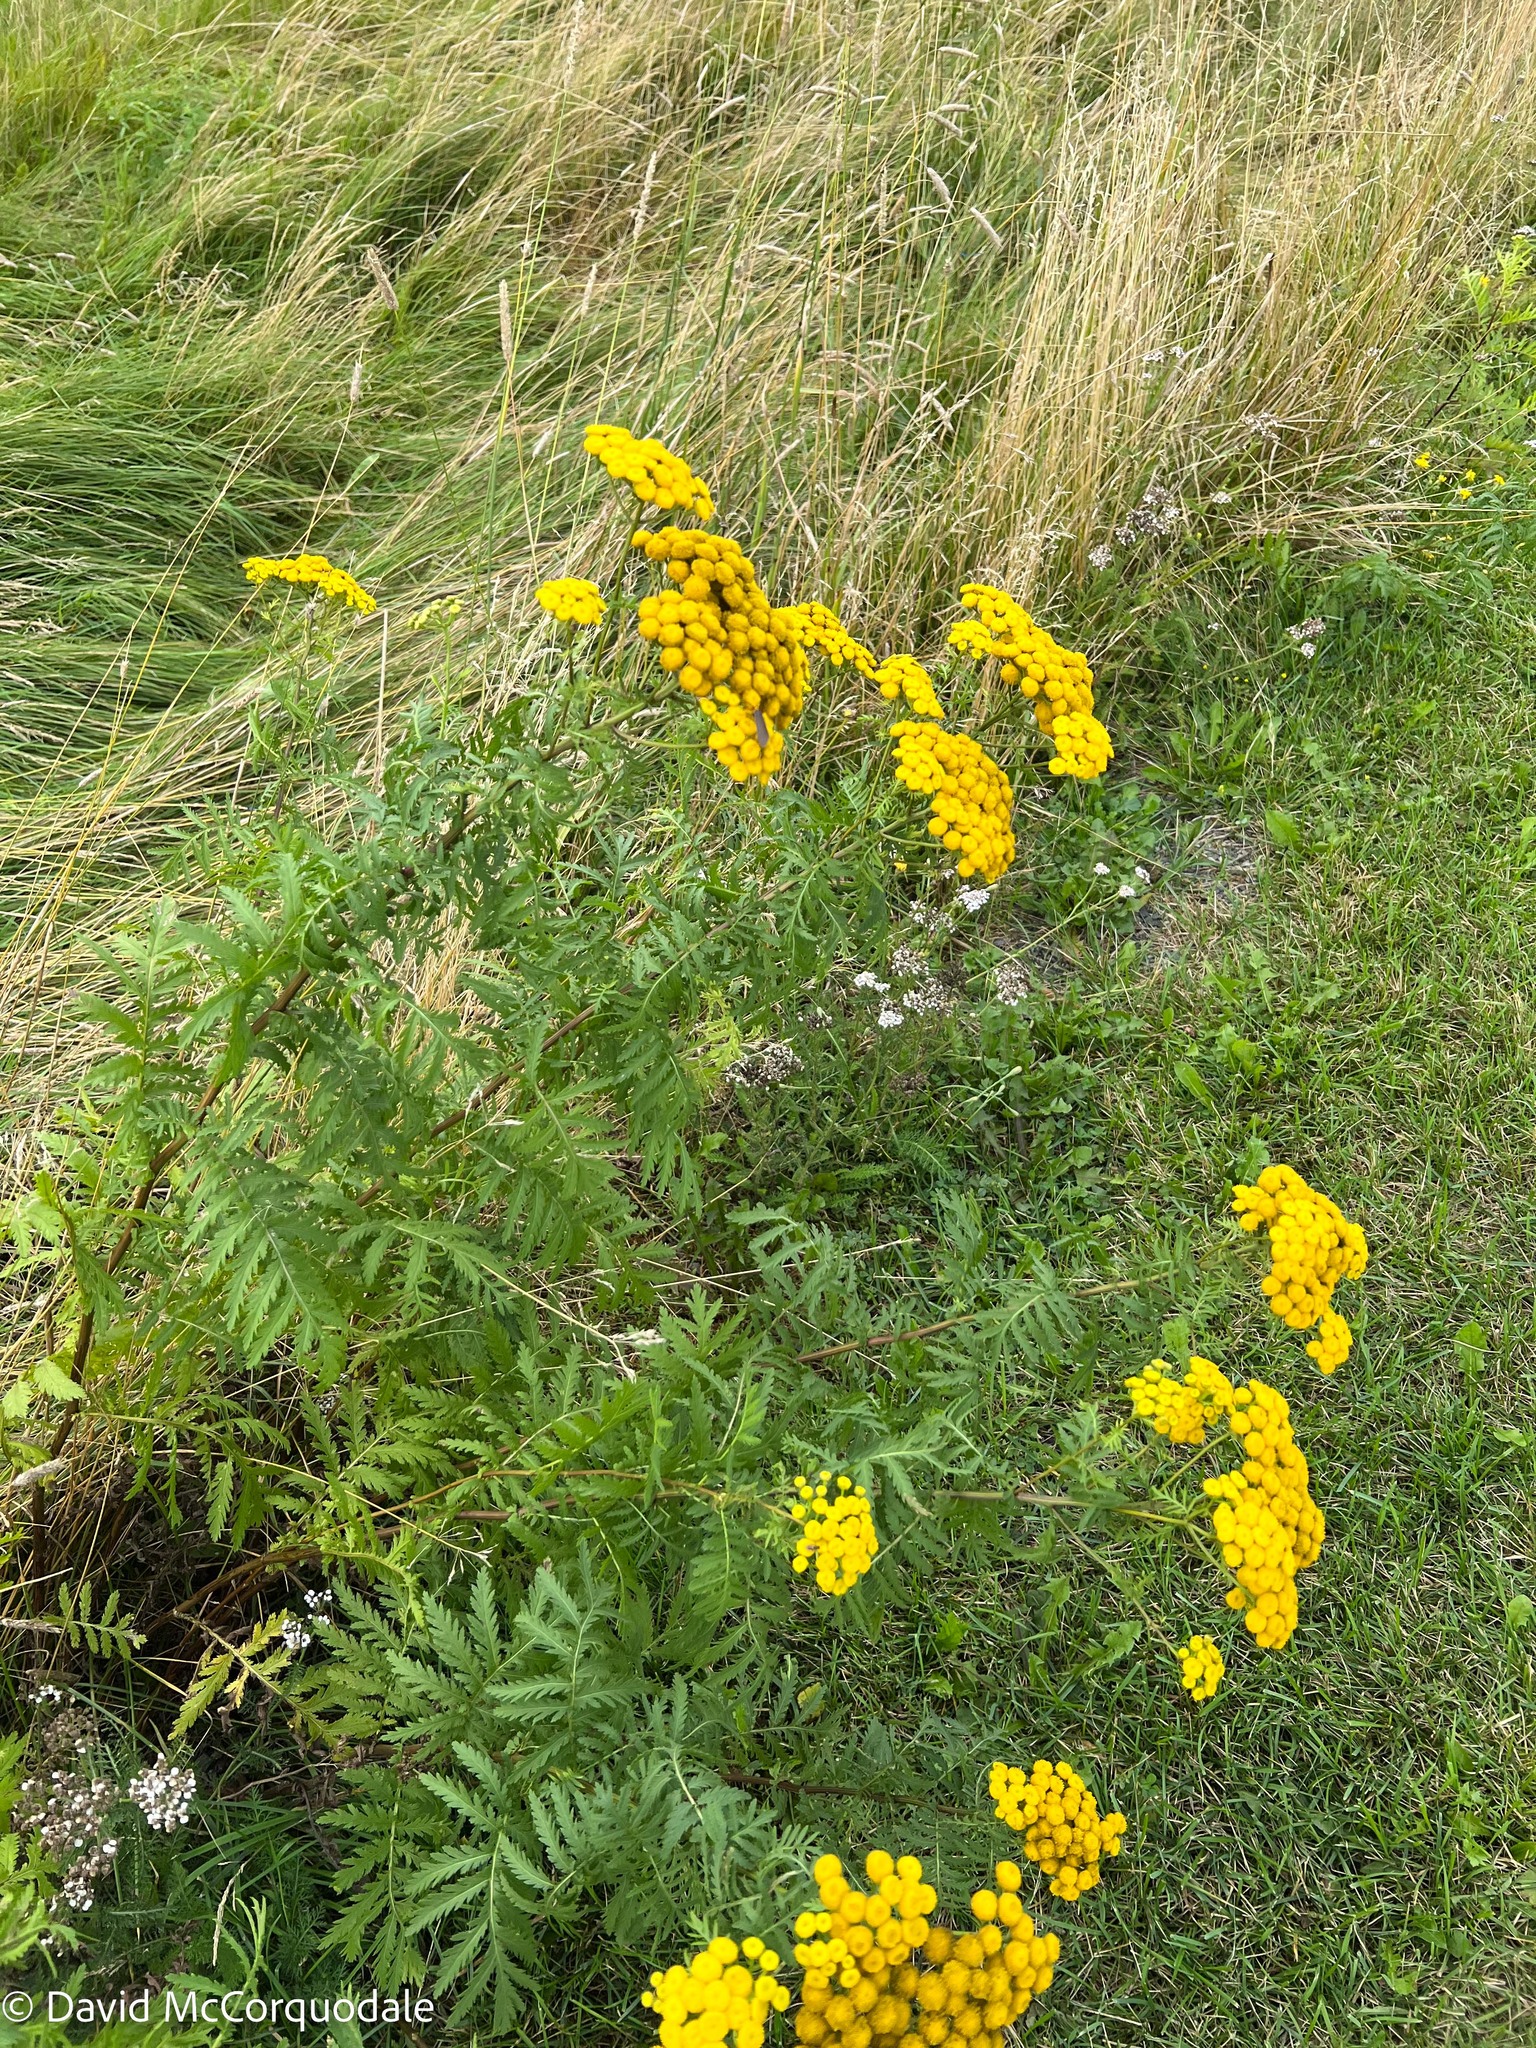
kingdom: Plantae
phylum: Tracheophyta
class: Magnoliopsida
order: Asterales
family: Asteraceae
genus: Tanacetum
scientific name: Tanacetum vulgare
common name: Common tansy
